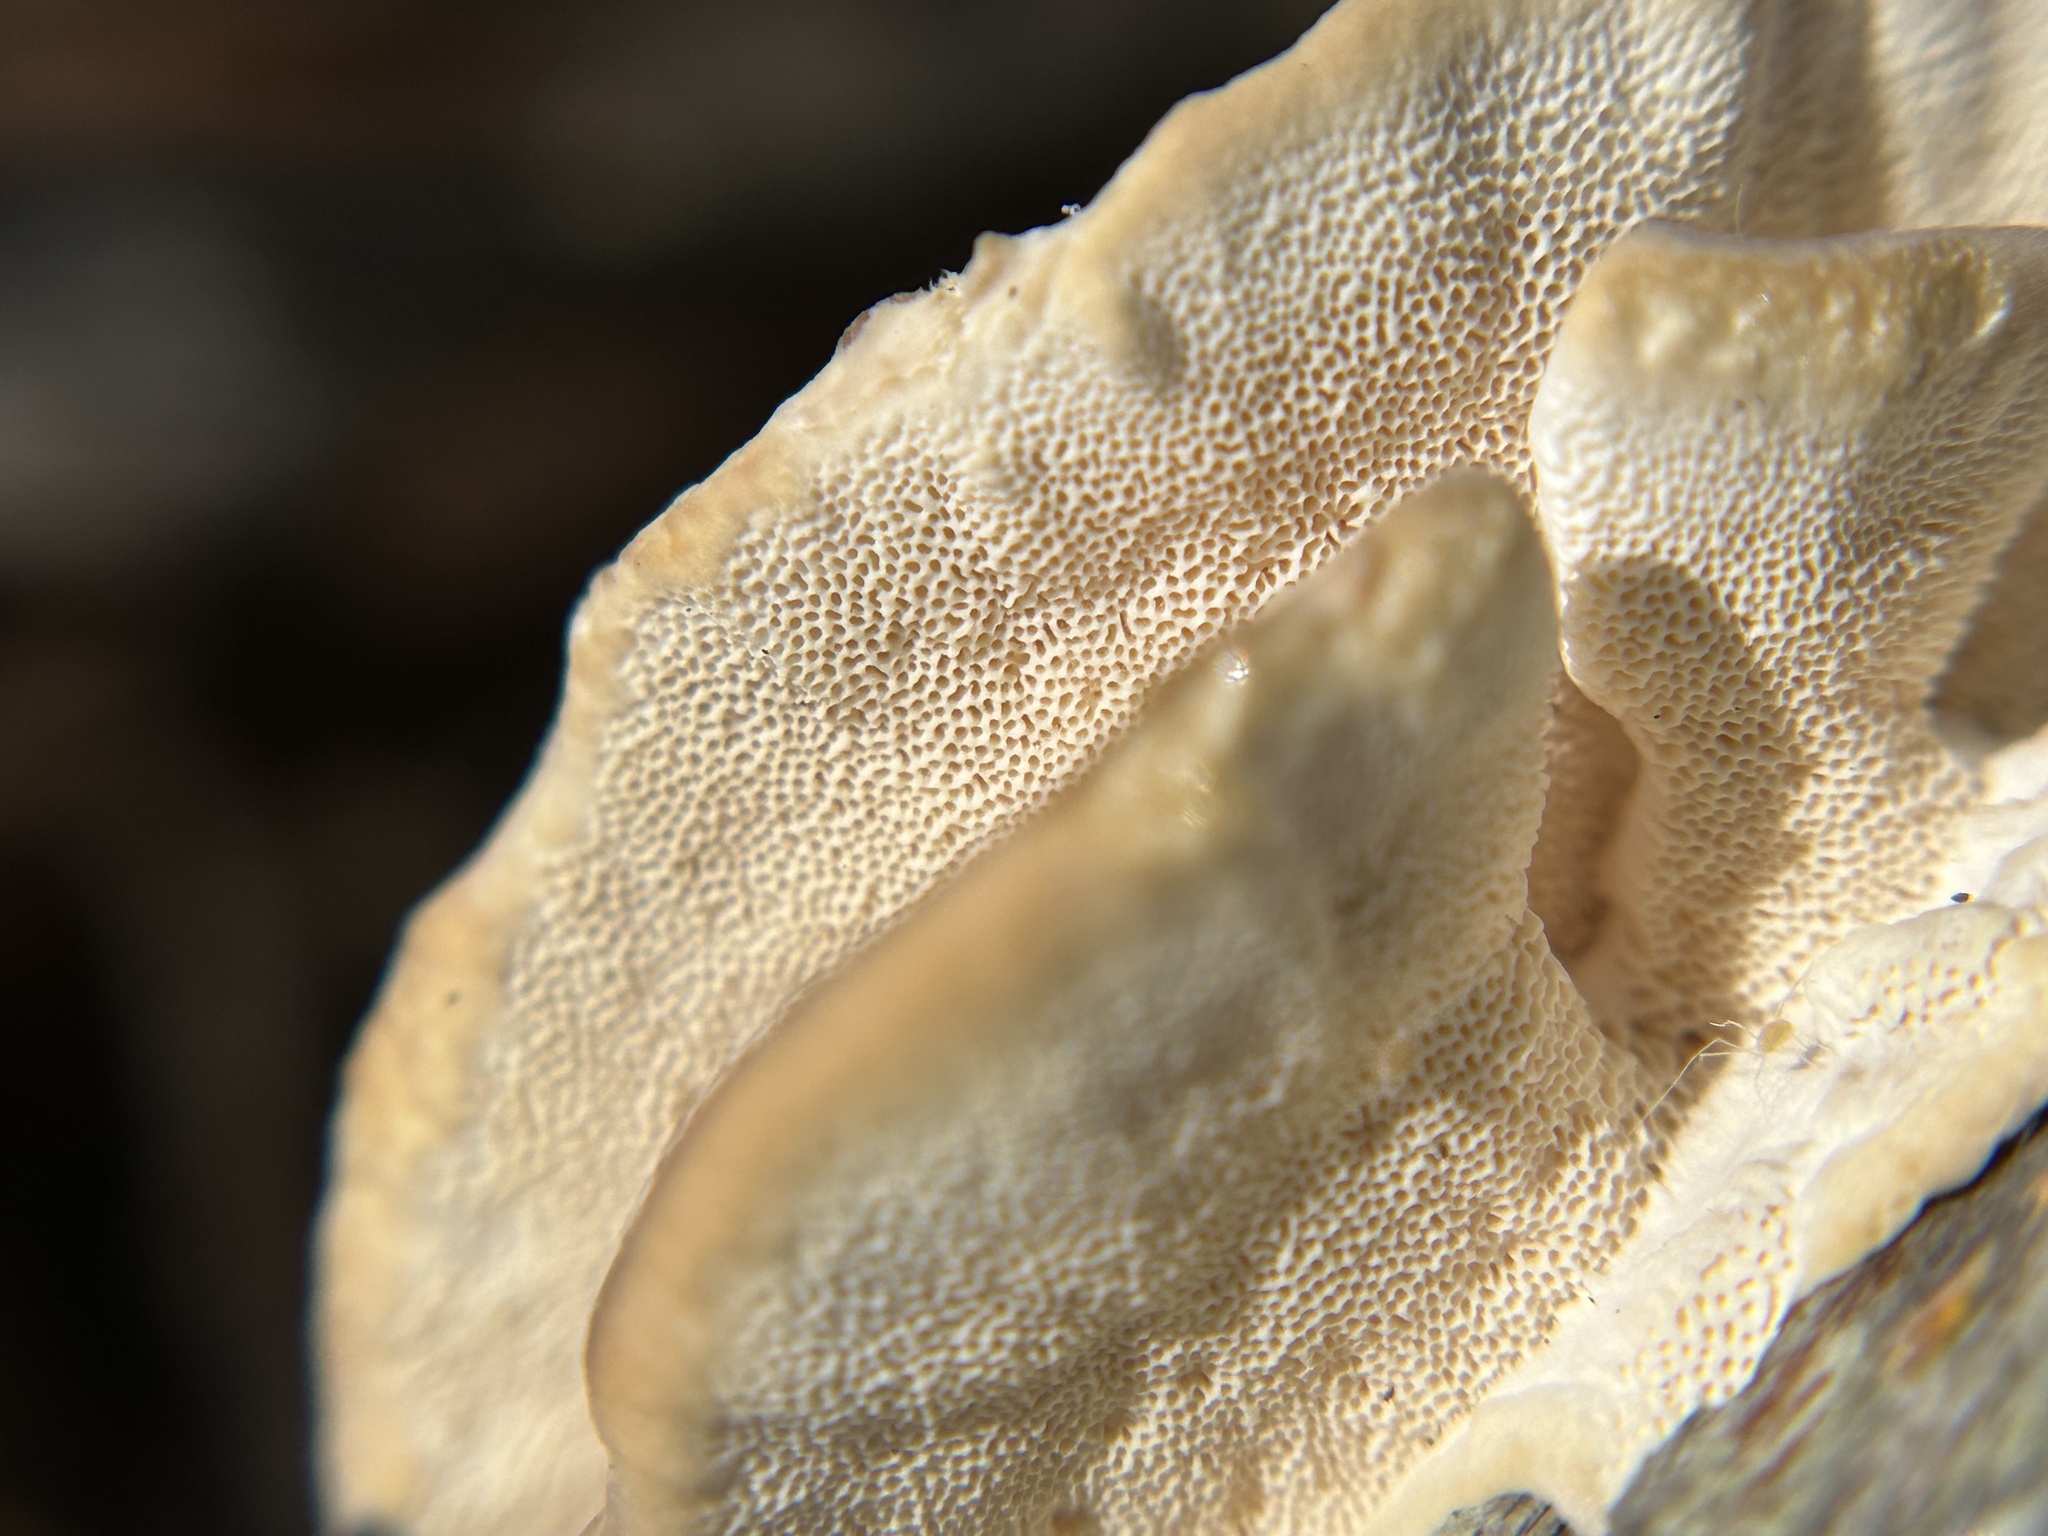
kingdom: Fungi
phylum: Basidiomycota
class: Agaricomycetes
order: Polyporales
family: Polyporaceae
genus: Trametes
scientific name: Trametes versicolor
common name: Turkeytail
